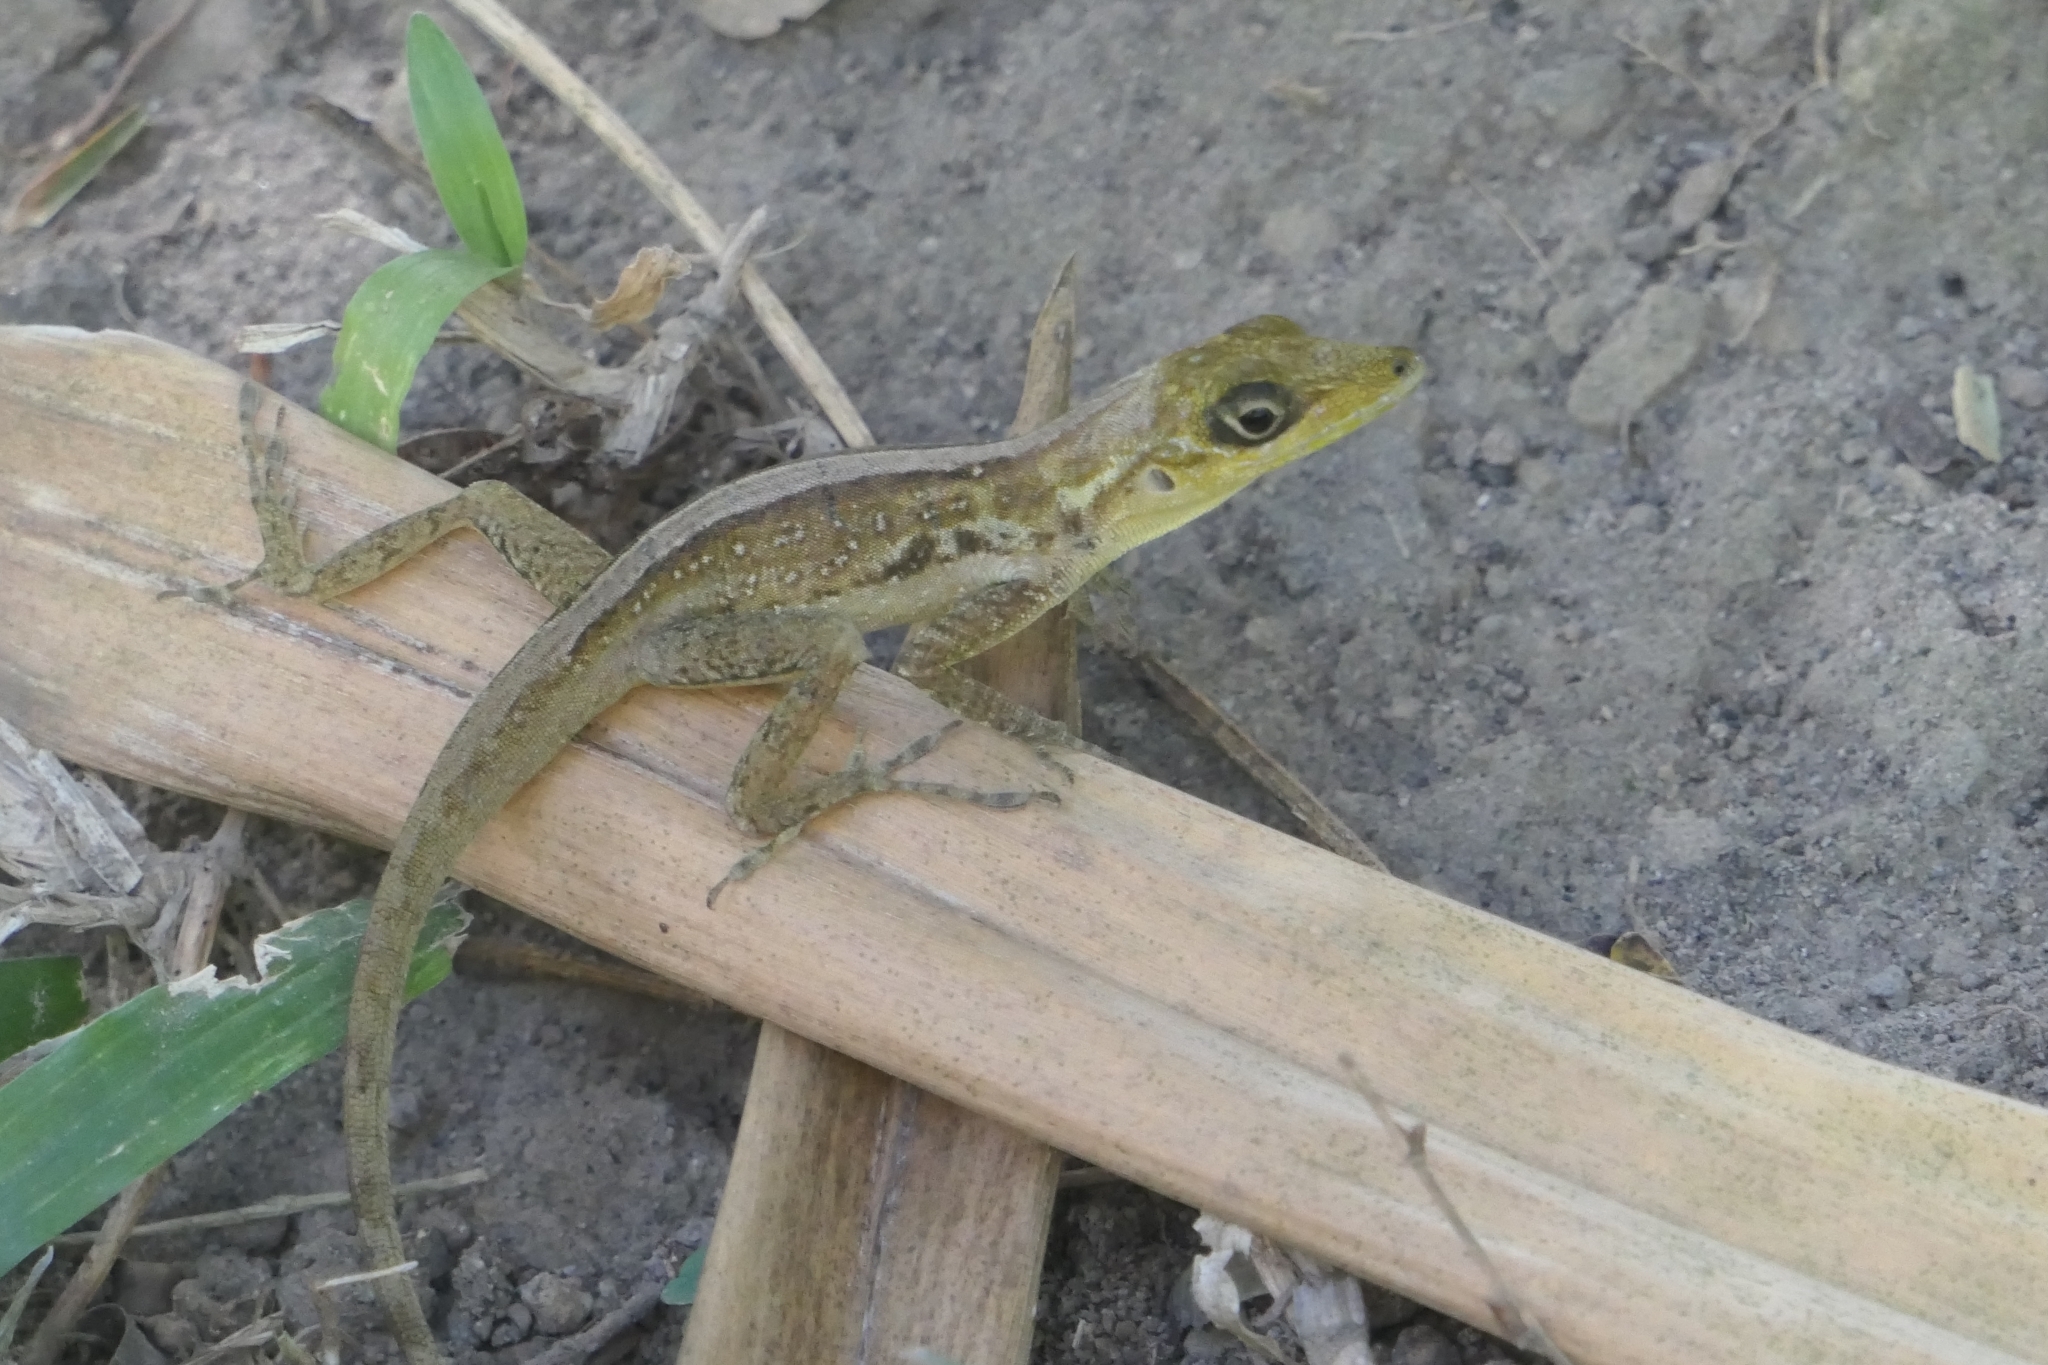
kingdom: Animalia
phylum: Chordata
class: Squamata
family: Dactyloidae
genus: Anolis
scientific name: Anolis roquet
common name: Martinique anole
